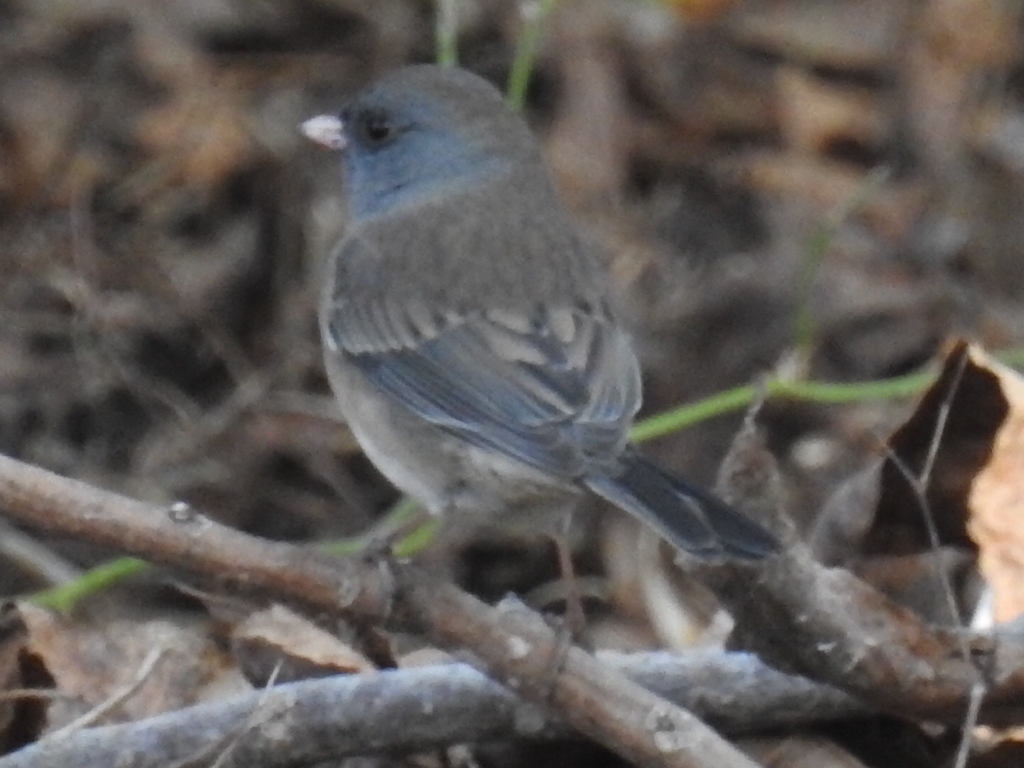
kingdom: Animalia
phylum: Chordata
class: Aves
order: Passeriformes
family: Passerellidae
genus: Junco
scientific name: Junco hyemalis
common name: Dark-eyed junco
